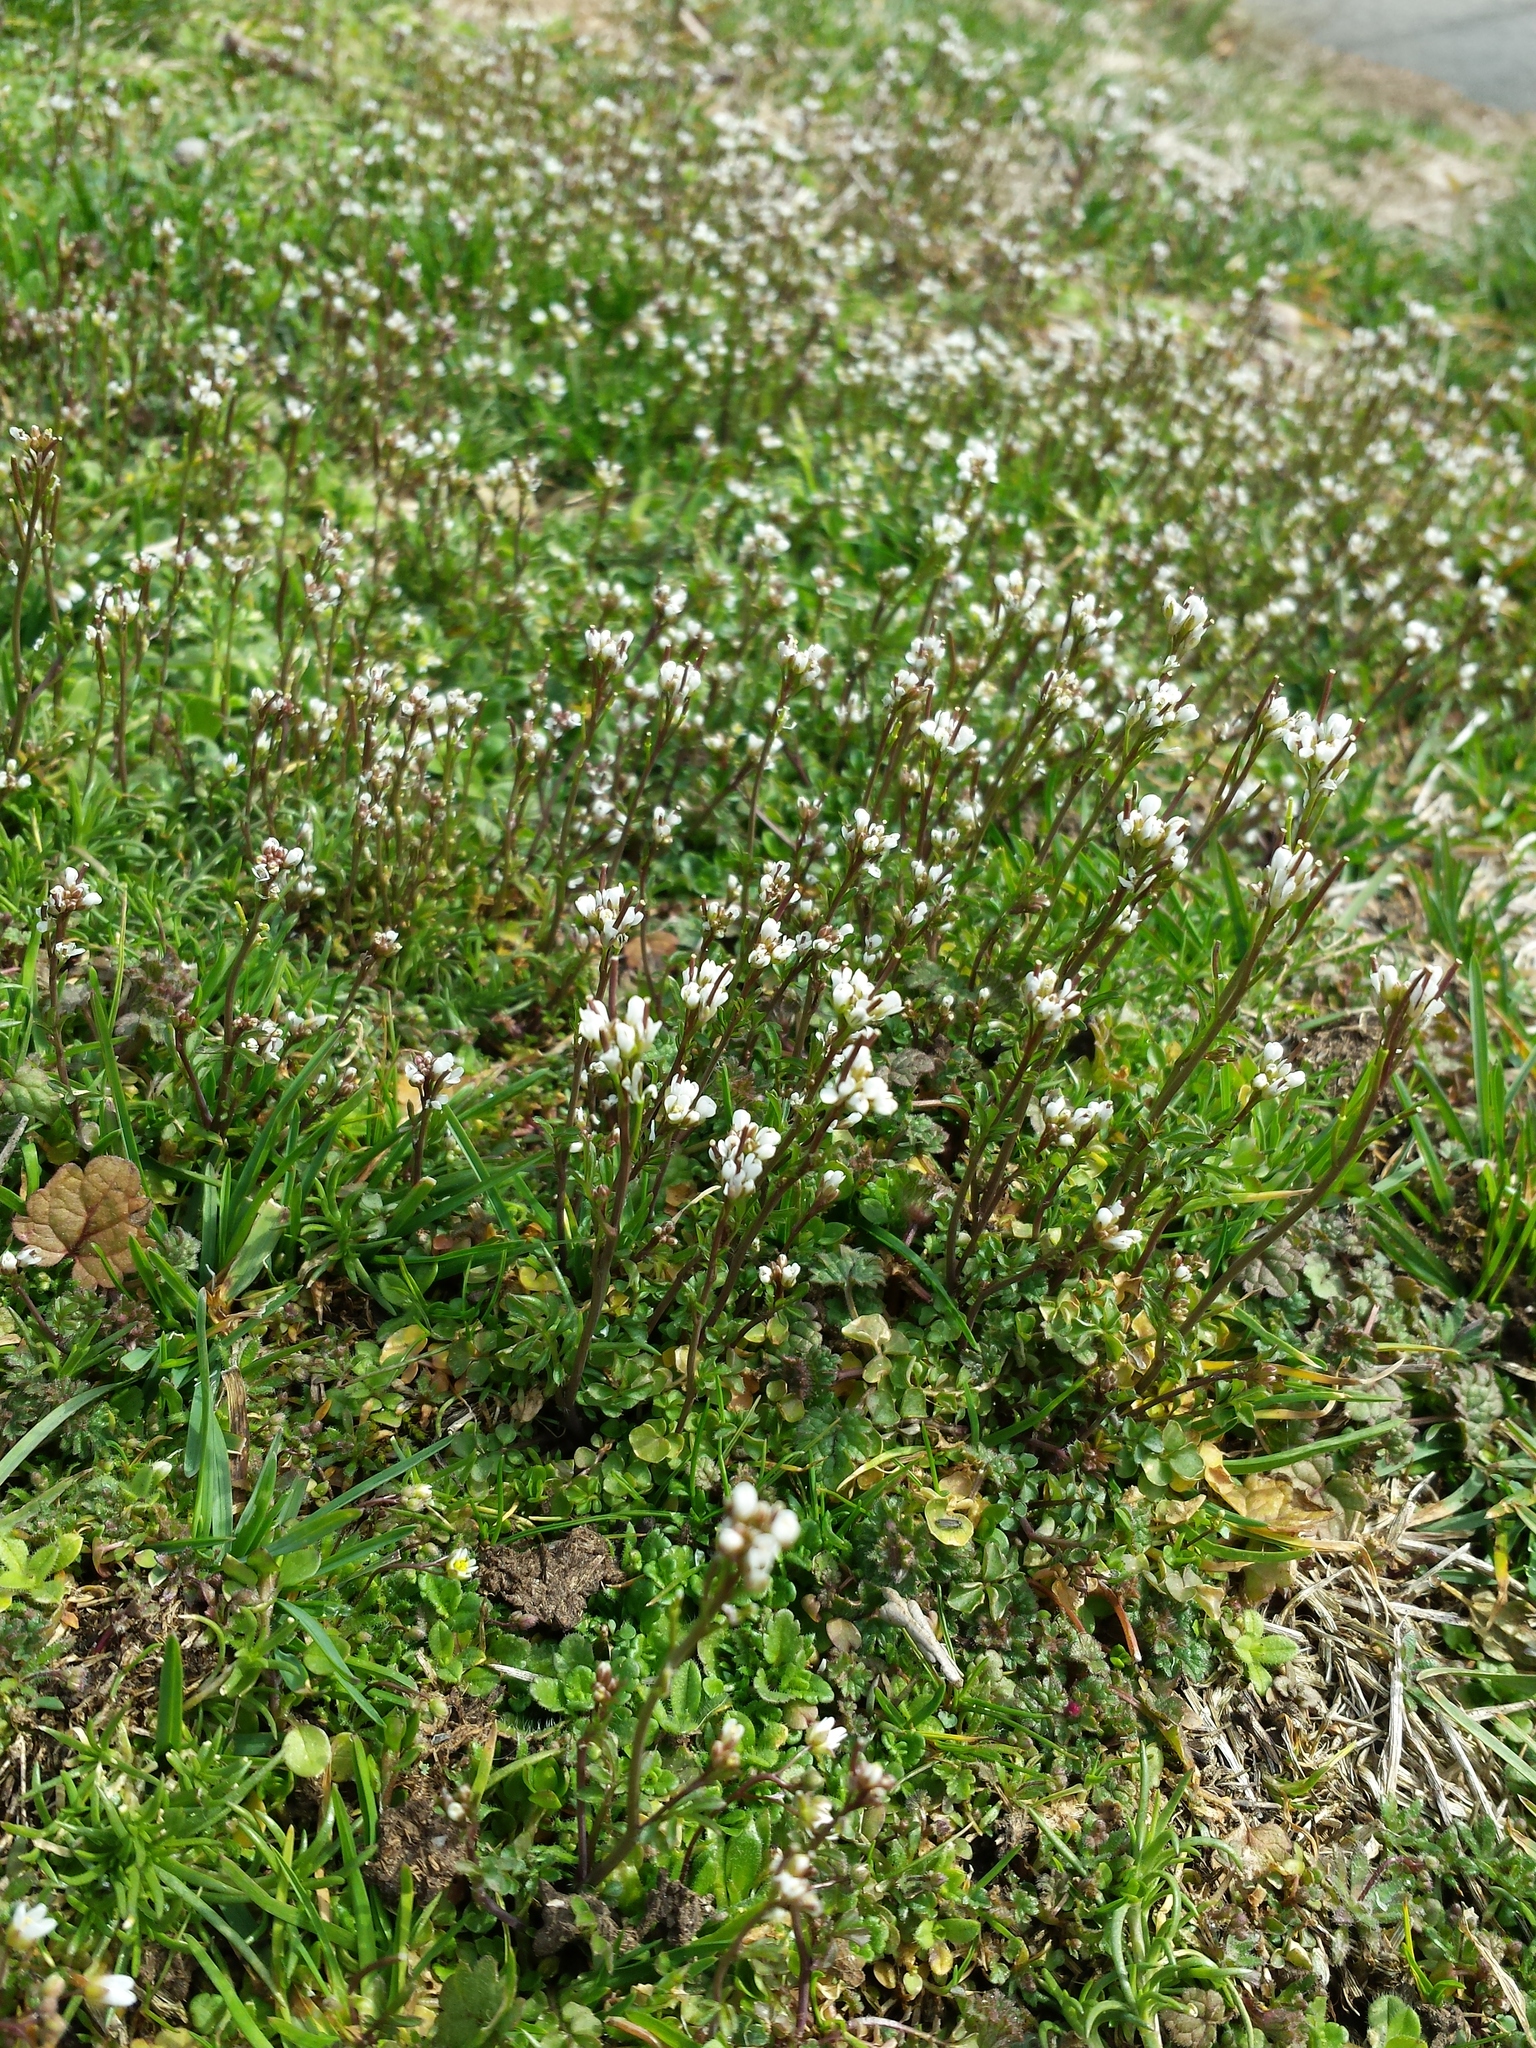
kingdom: Plantae
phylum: Tracheophyta
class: Magnoliopsida
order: Brassicales
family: Brassicaceae
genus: Cardamine
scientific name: Cardamine hirsuta
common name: Hairy bittercress
